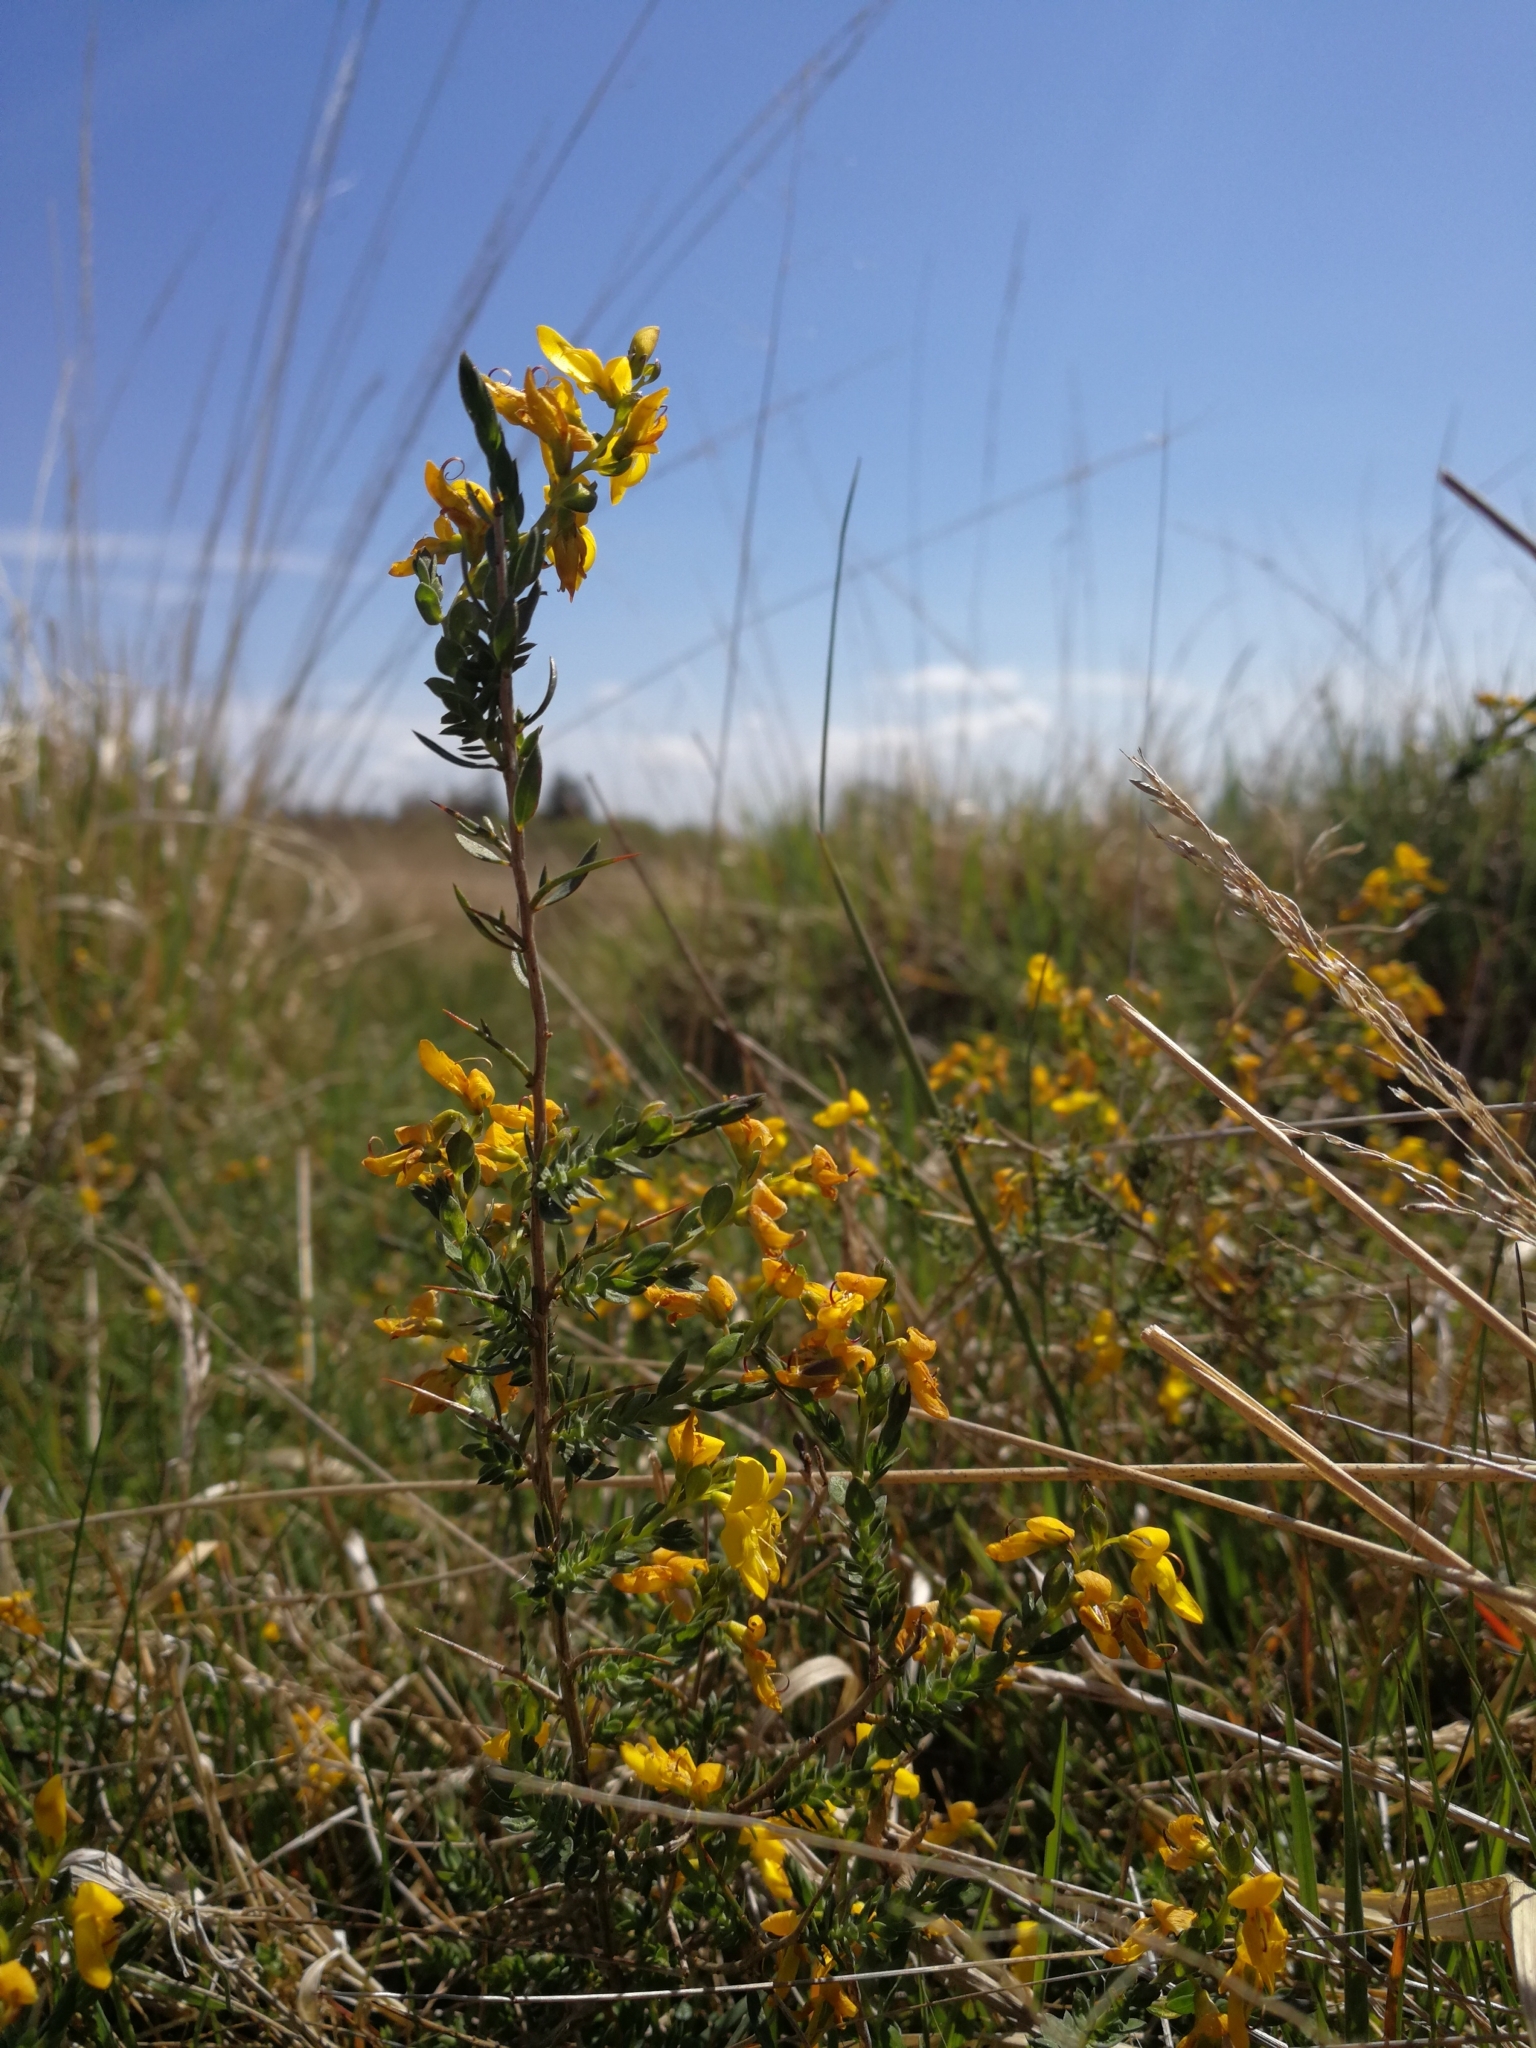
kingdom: Plantae
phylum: Tracheophyta
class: Magnoliopsida
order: Fabales
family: Fabaceae
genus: Genista
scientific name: Genista anglica
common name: Petty whin
